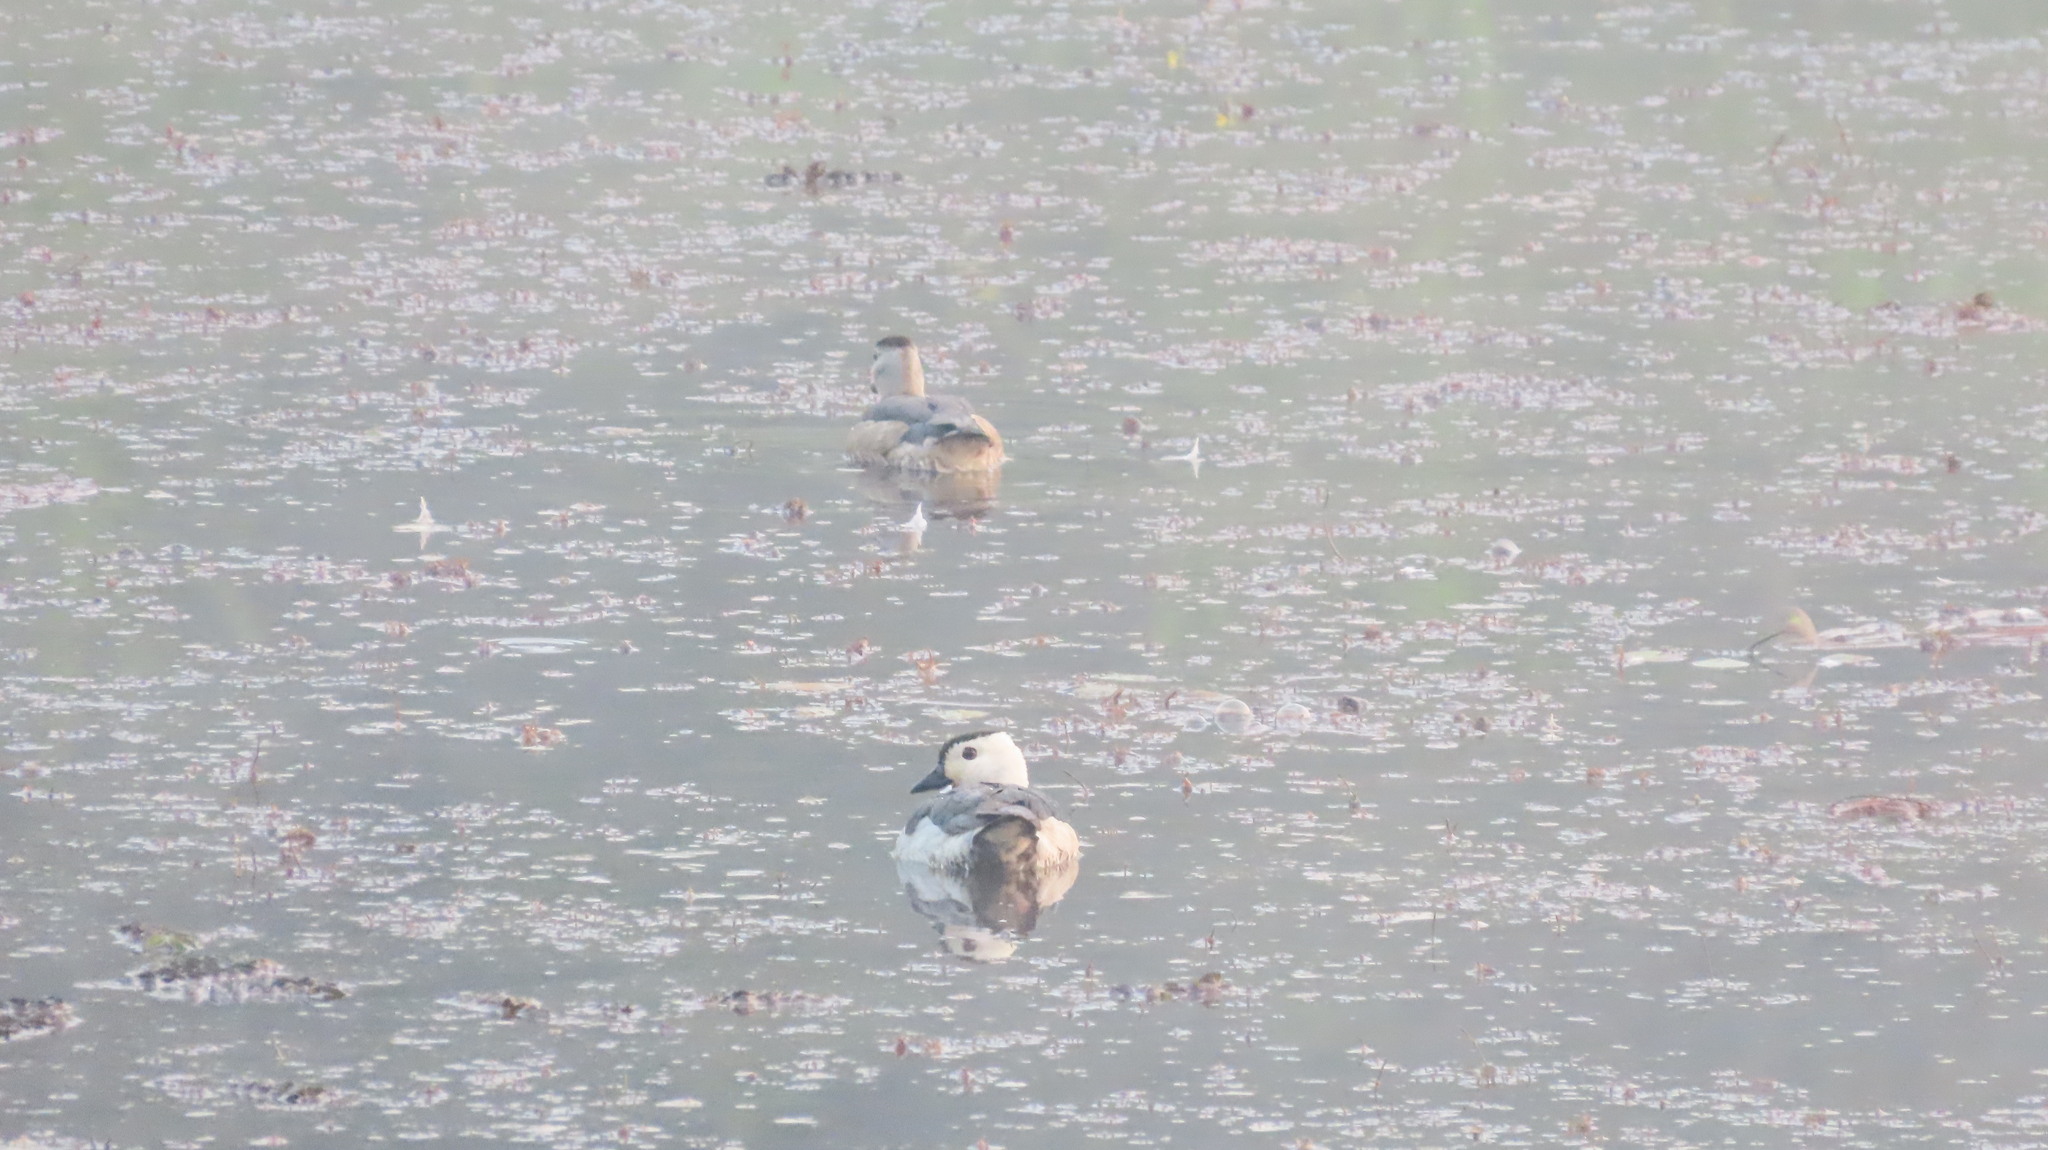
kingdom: Animalia
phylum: Chordata
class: Aves
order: Anseriformes
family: Anatidae
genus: Nettapus
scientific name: Nettapus coromandelianus
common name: Cotton pygmy-goose
